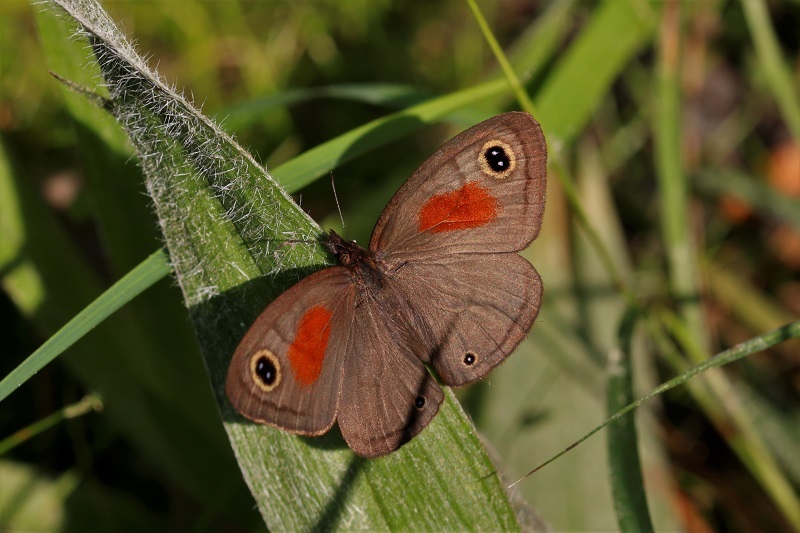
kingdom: Animalia
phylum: Arthropoda
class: Insecta
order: Lepidoptera
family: Nymphalidae
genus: Cassionympha
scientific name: Cassionympha cassius
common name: Rainforest brown
